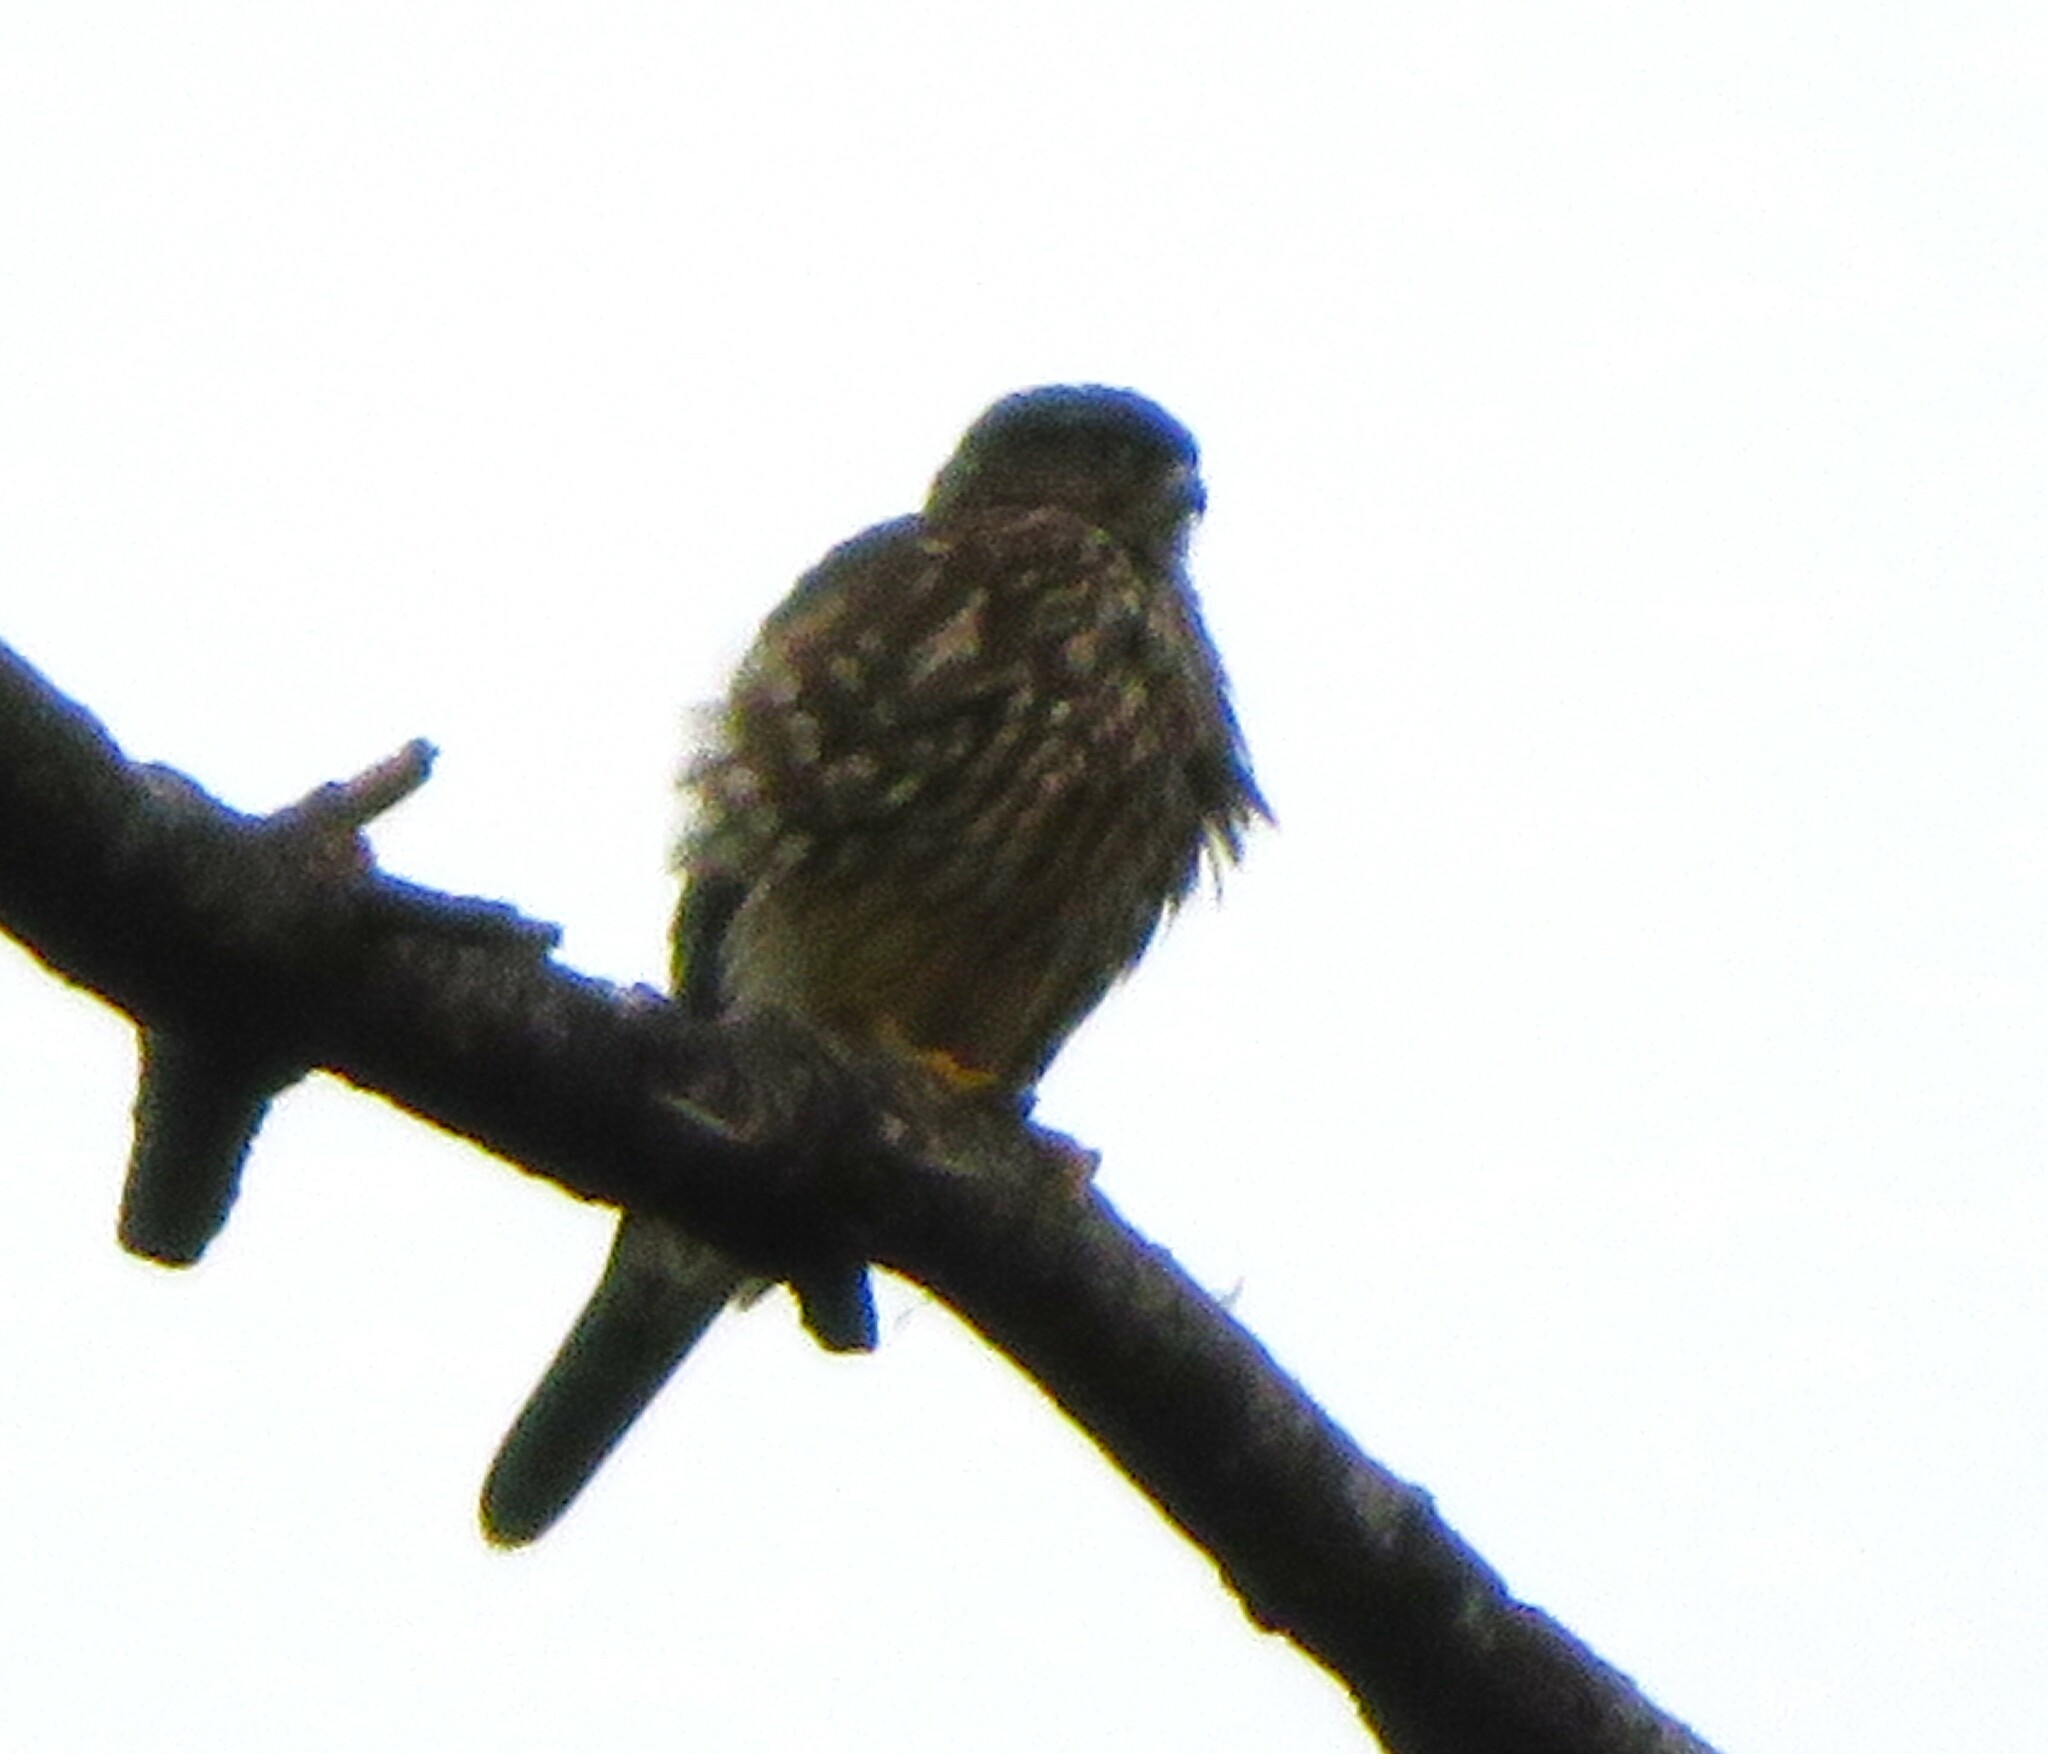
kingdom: Animalia
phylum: Chordata
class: Aves
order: Falconiformes
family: Falconidae
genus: Falco
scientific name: Falco columbarius
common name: Merlin
